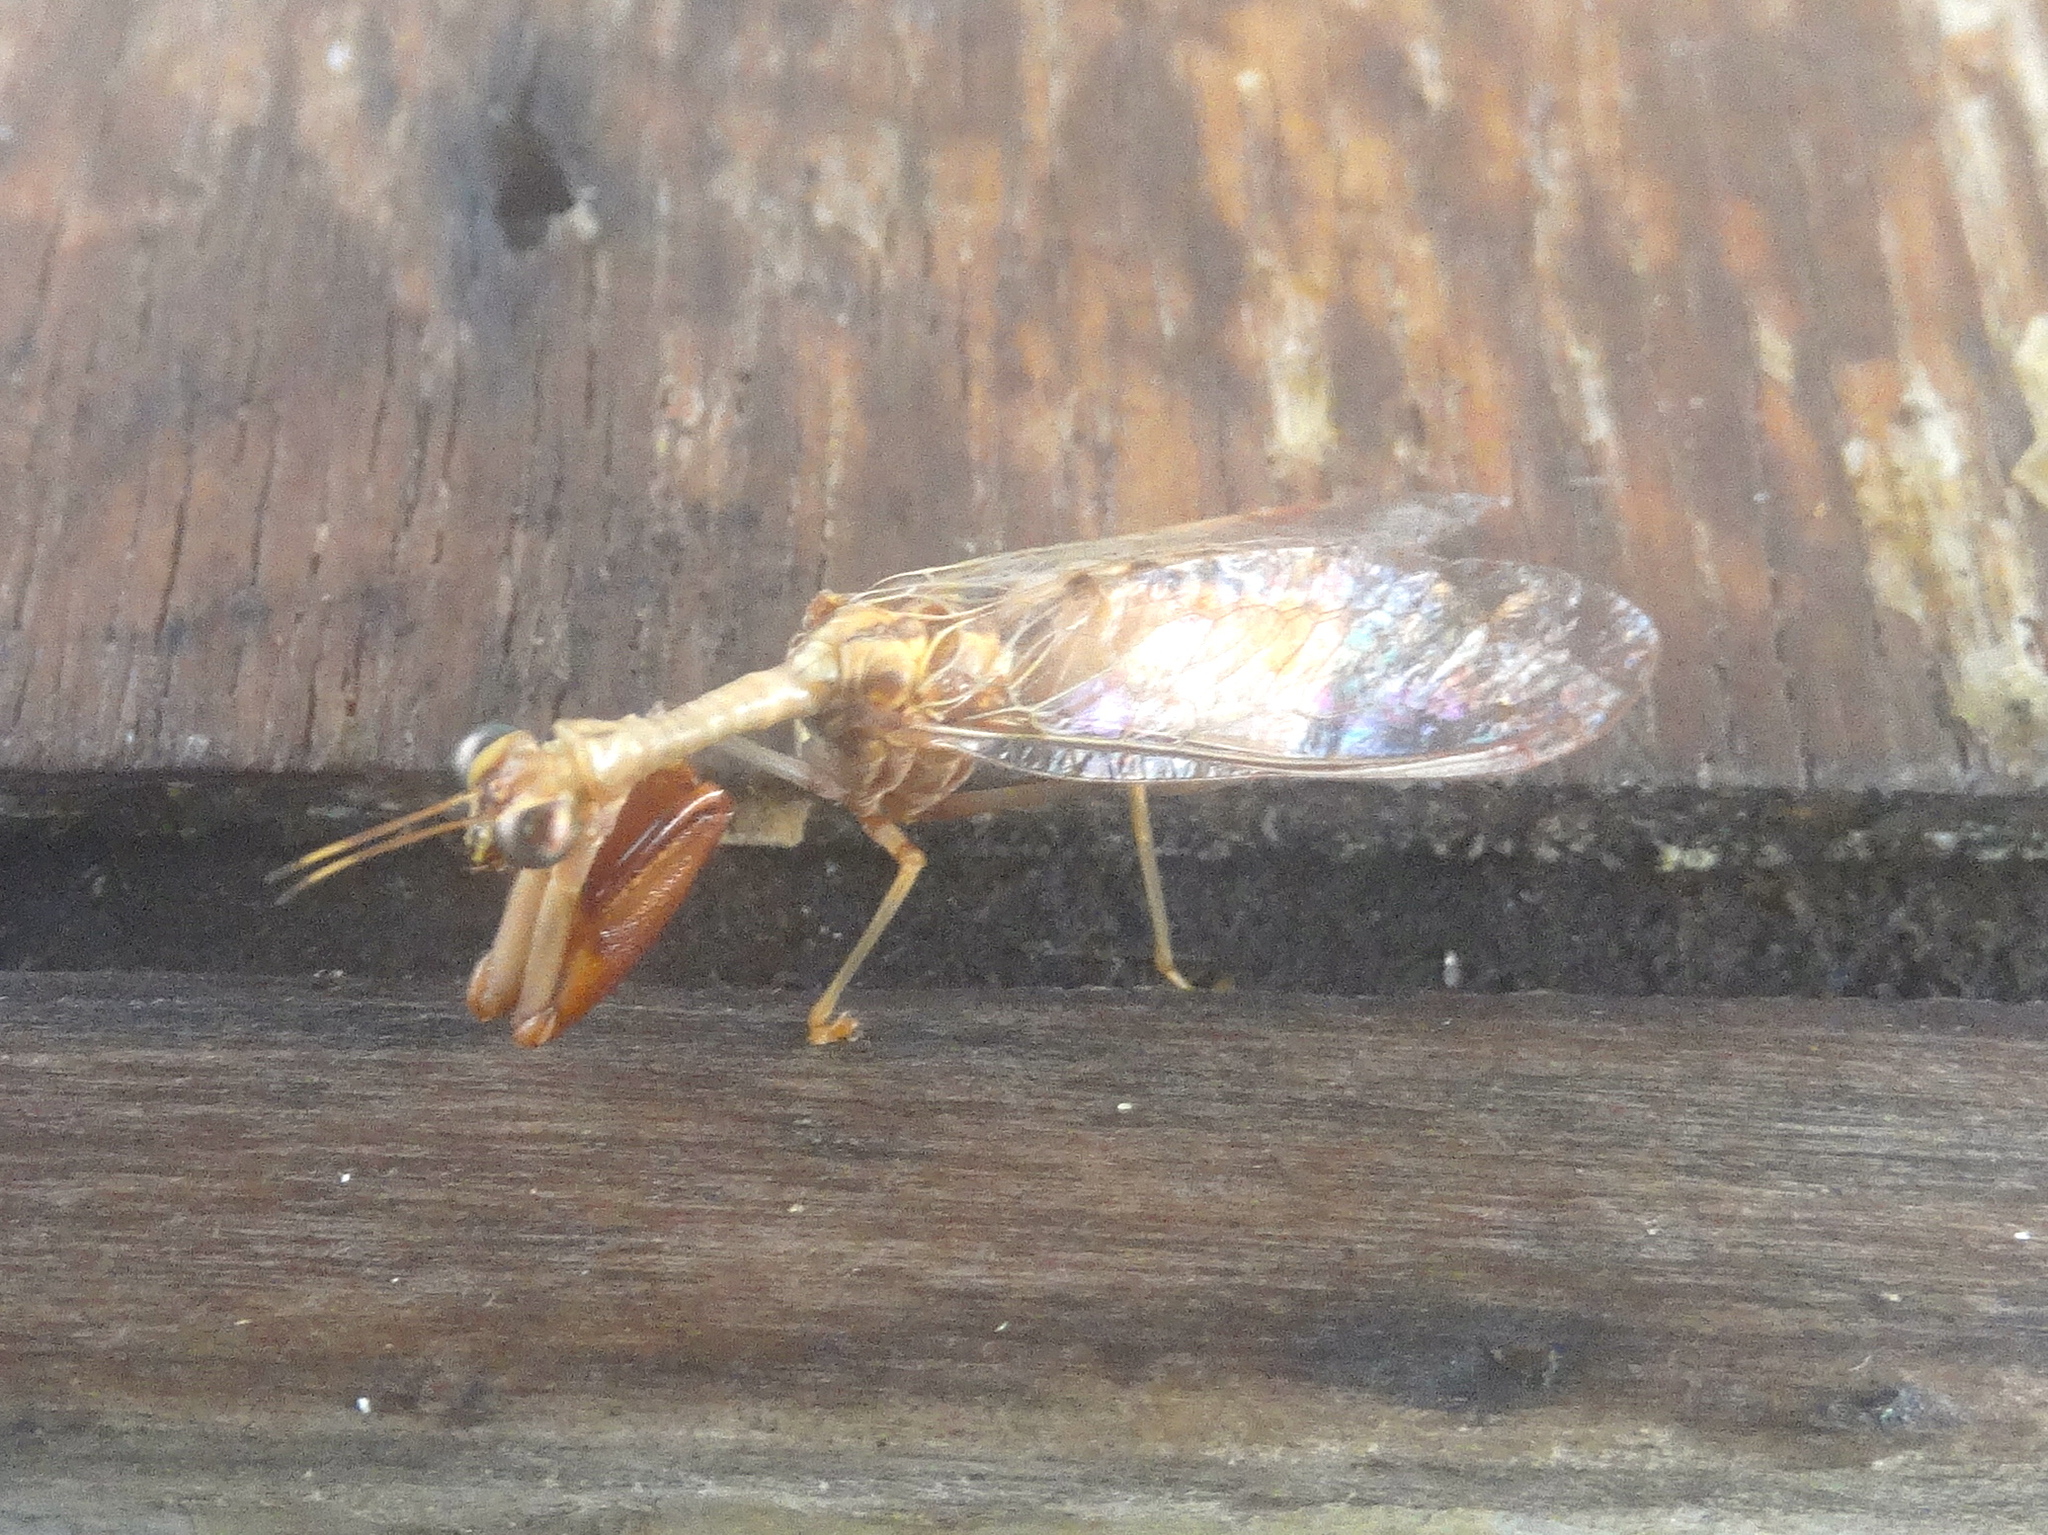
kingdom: Animalia
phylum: Arthropoda
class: Insecta
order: Neuroptera
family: Mantispidae
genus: Dicromantispa
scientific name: Dicromantispa
